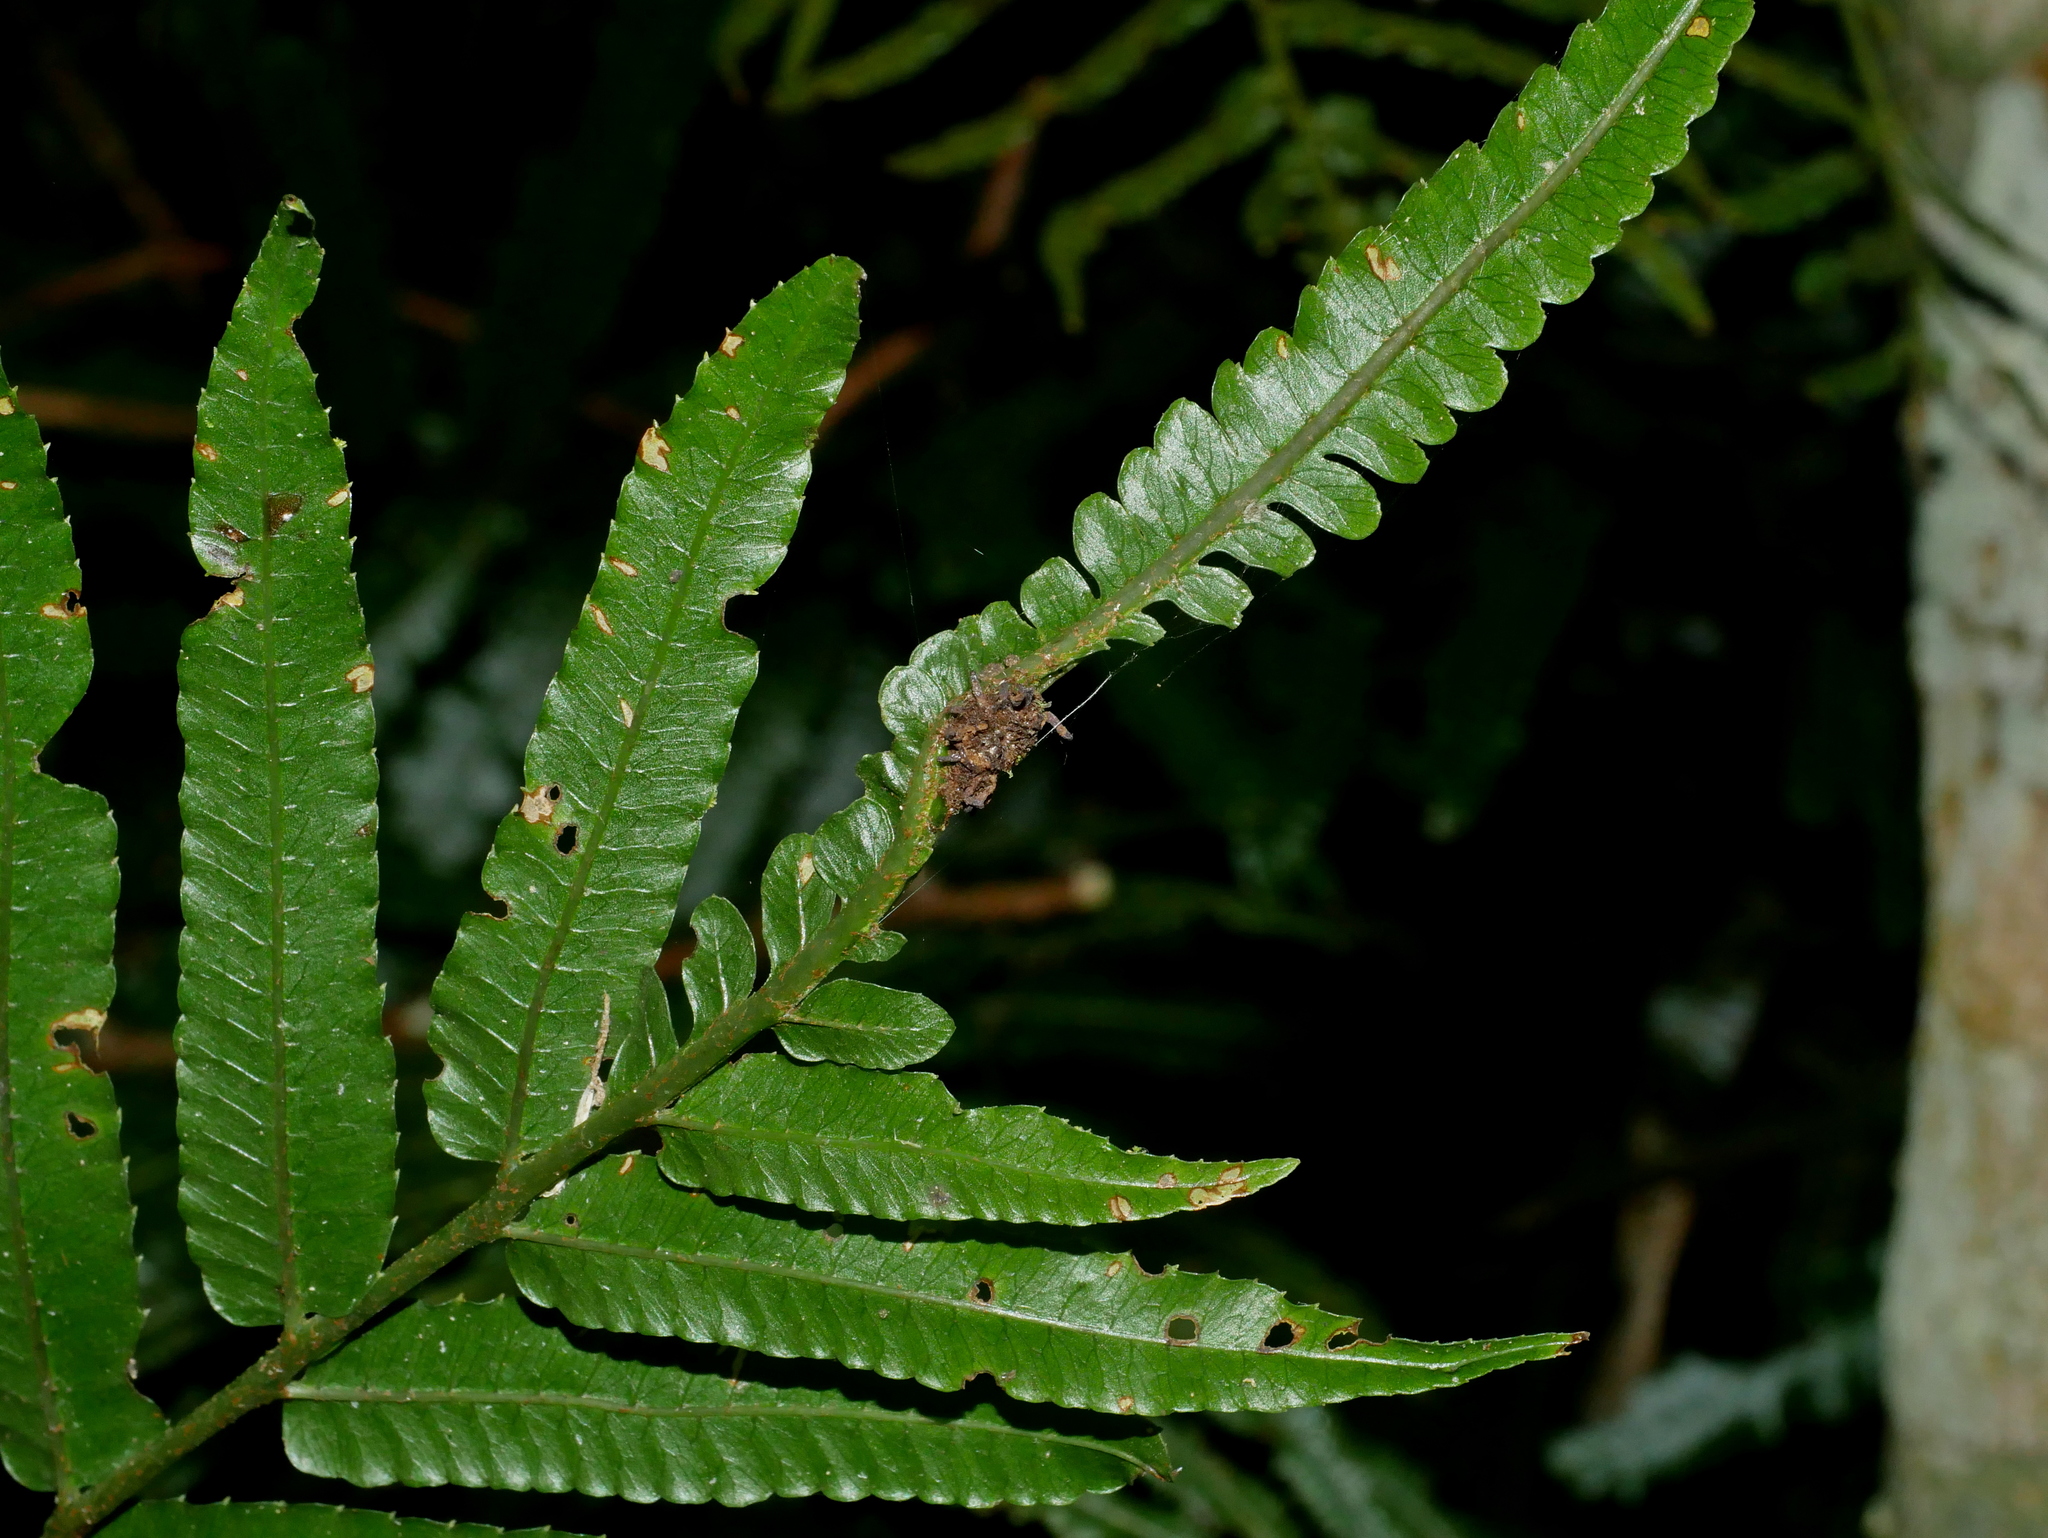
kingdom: Plantae
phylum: Tracheophyta
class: Polypodiopsida
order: Polypodiales
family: Dryopteridaceae
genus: Bolbitis
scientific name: Bolbitis angustipinna
